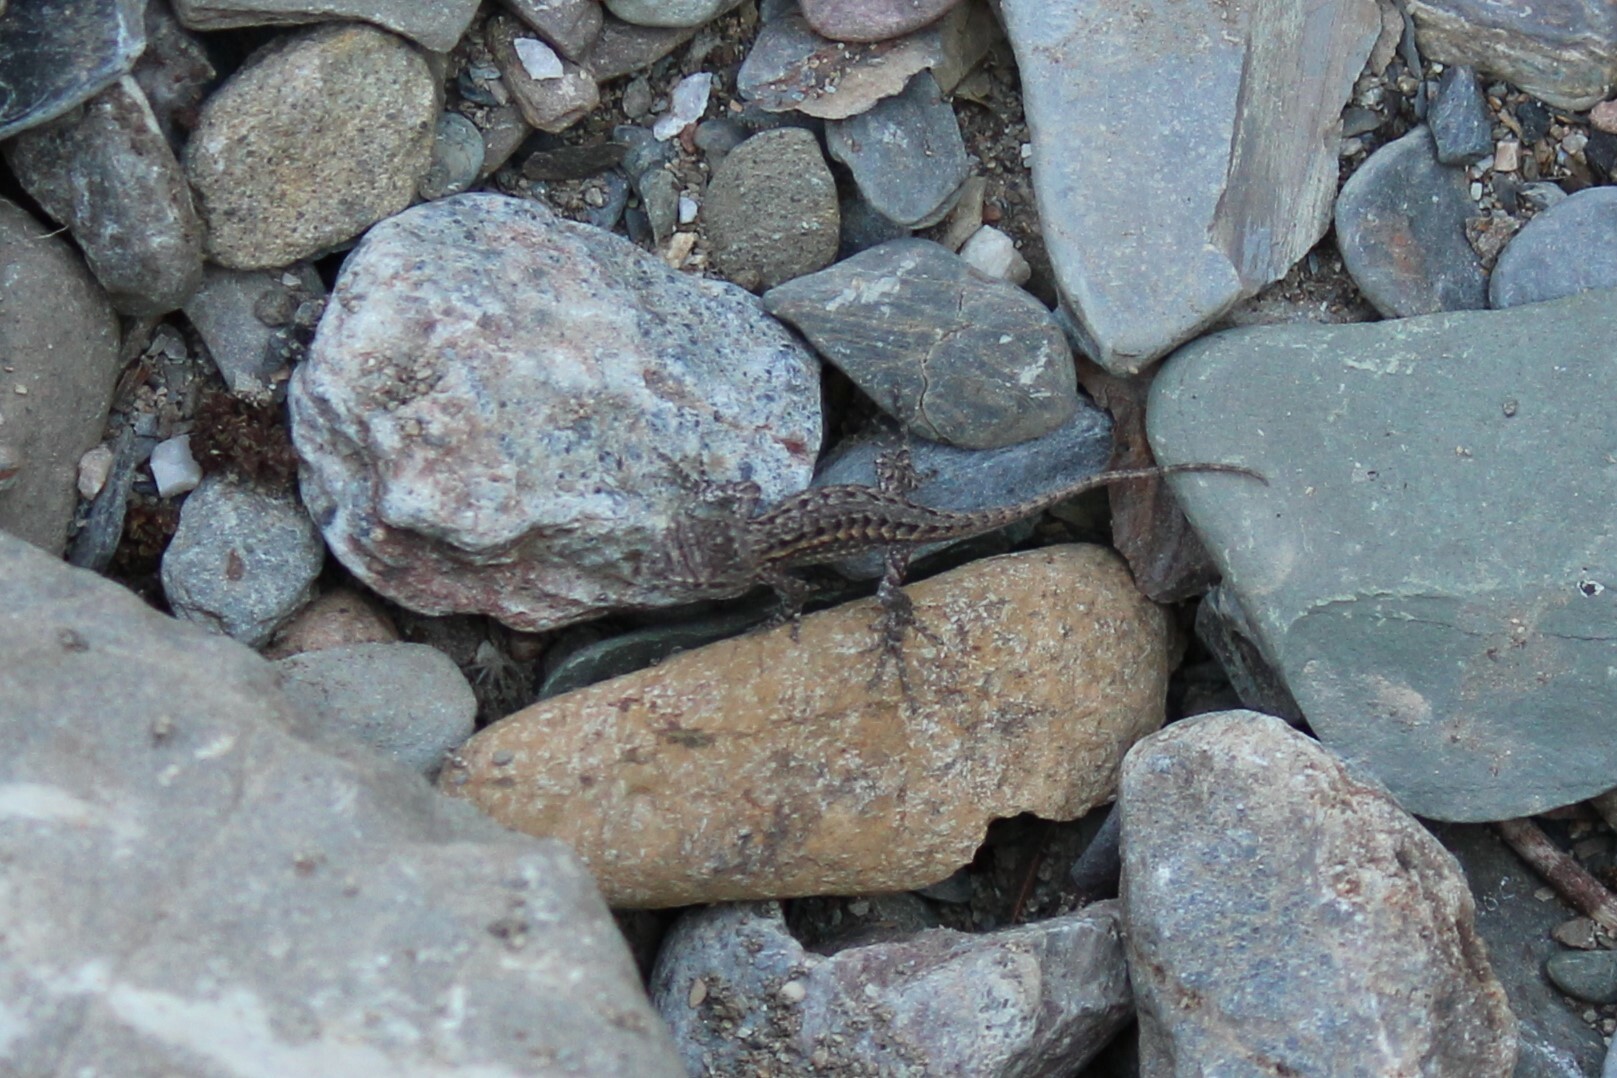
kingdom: Animalia
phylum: Chordata
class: Squamata
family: Phrynosomatidae
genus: Sceloporus
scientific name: Sceloporus occidentalis
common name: Western fence lizard
